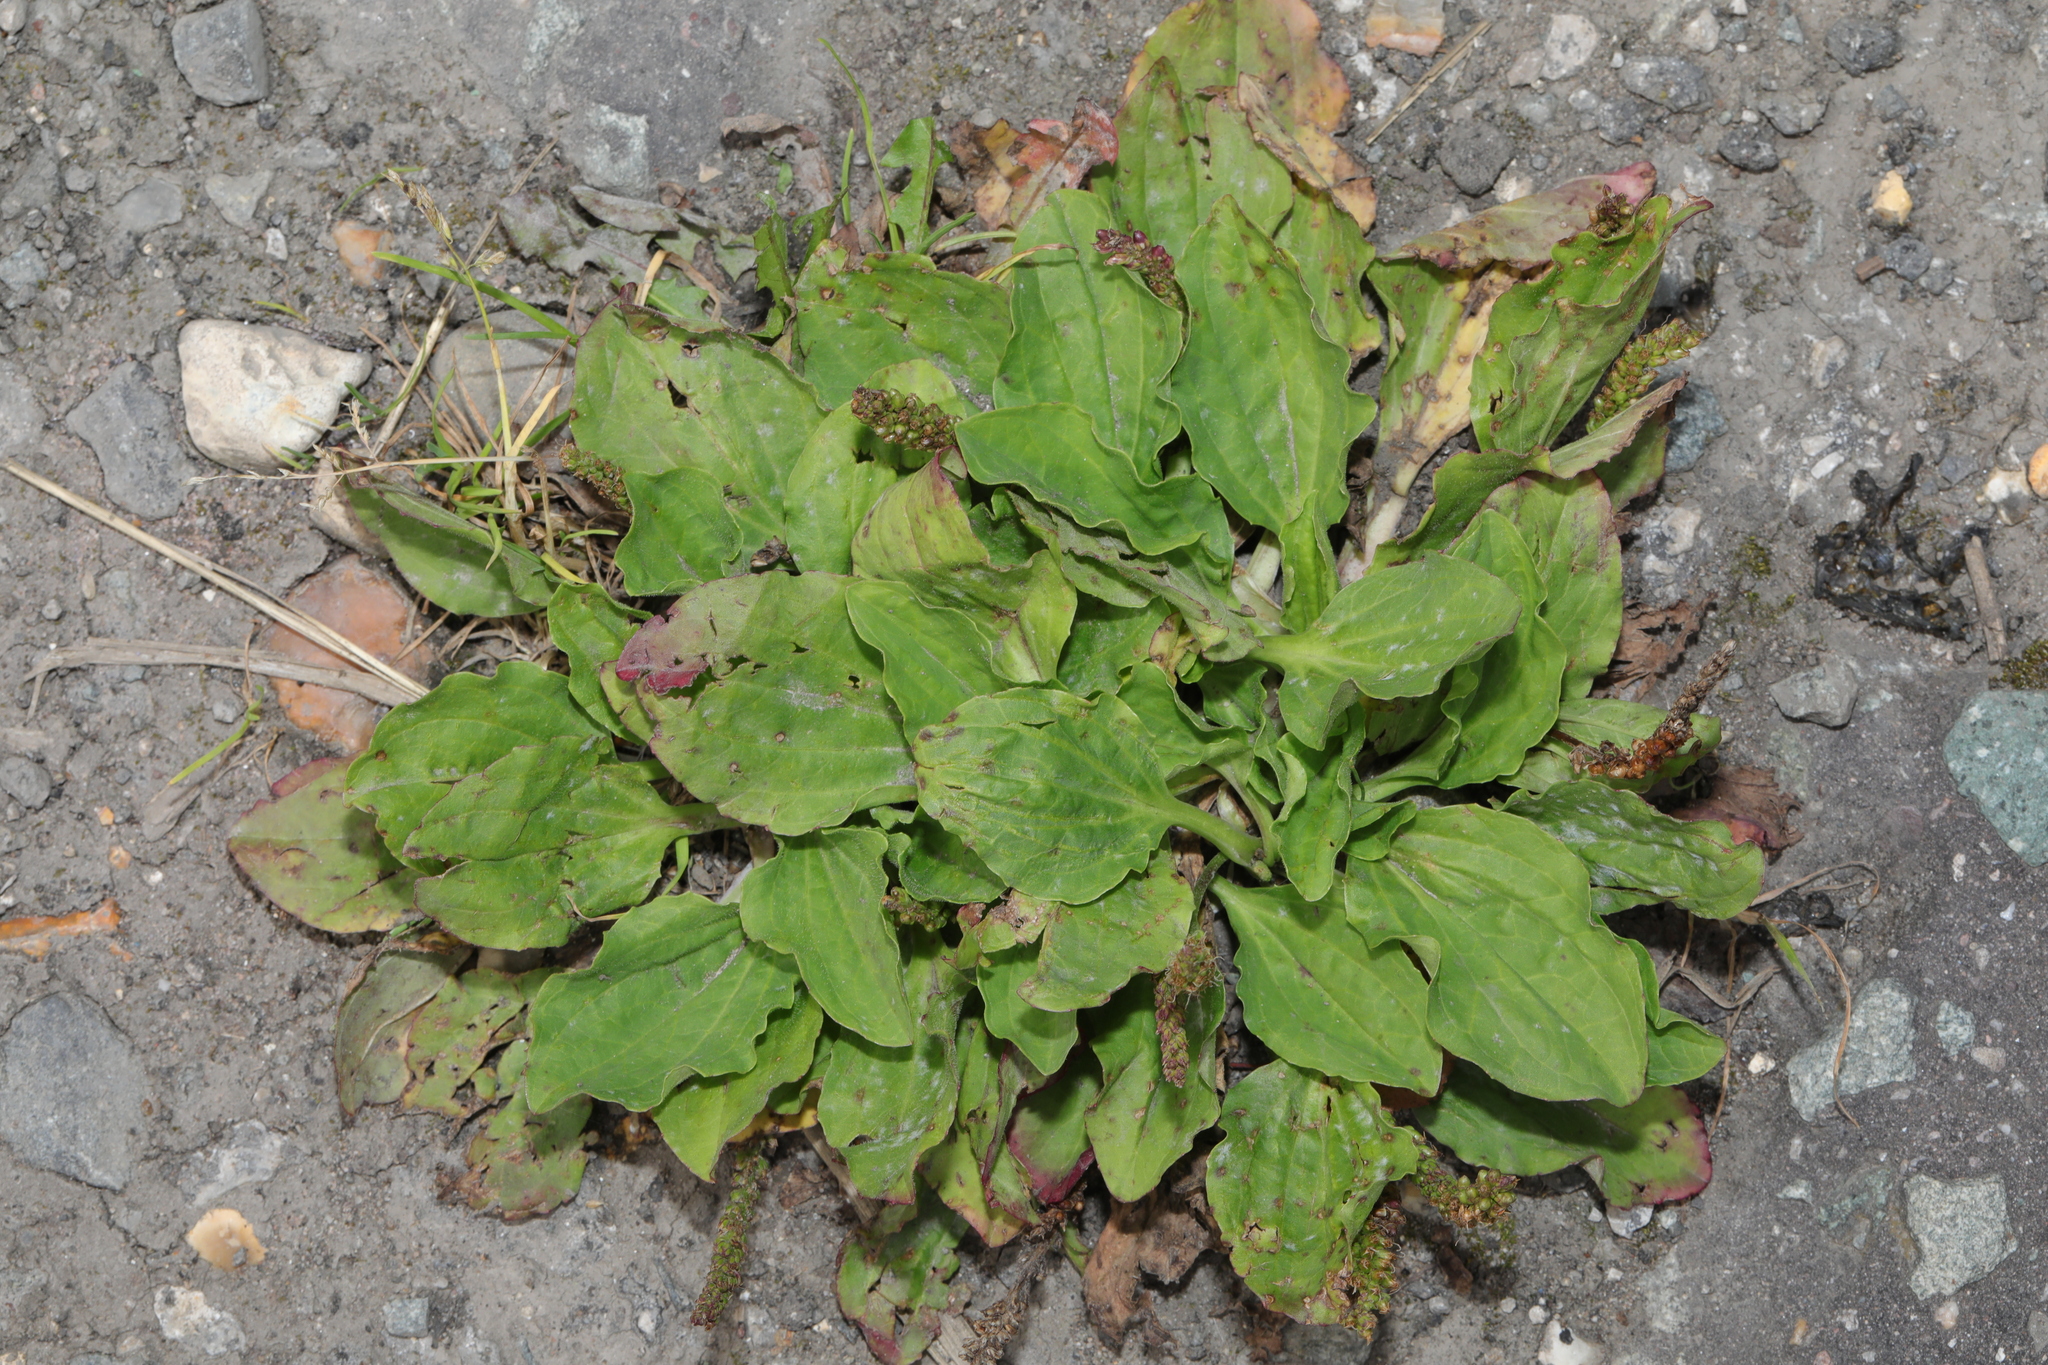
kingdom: Plantae
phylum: Tracheophyta
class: Magnoliopsida
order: Lamiales
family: Plantaginaceae
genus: Plantago
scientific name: Plantago major
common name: Common plantain
